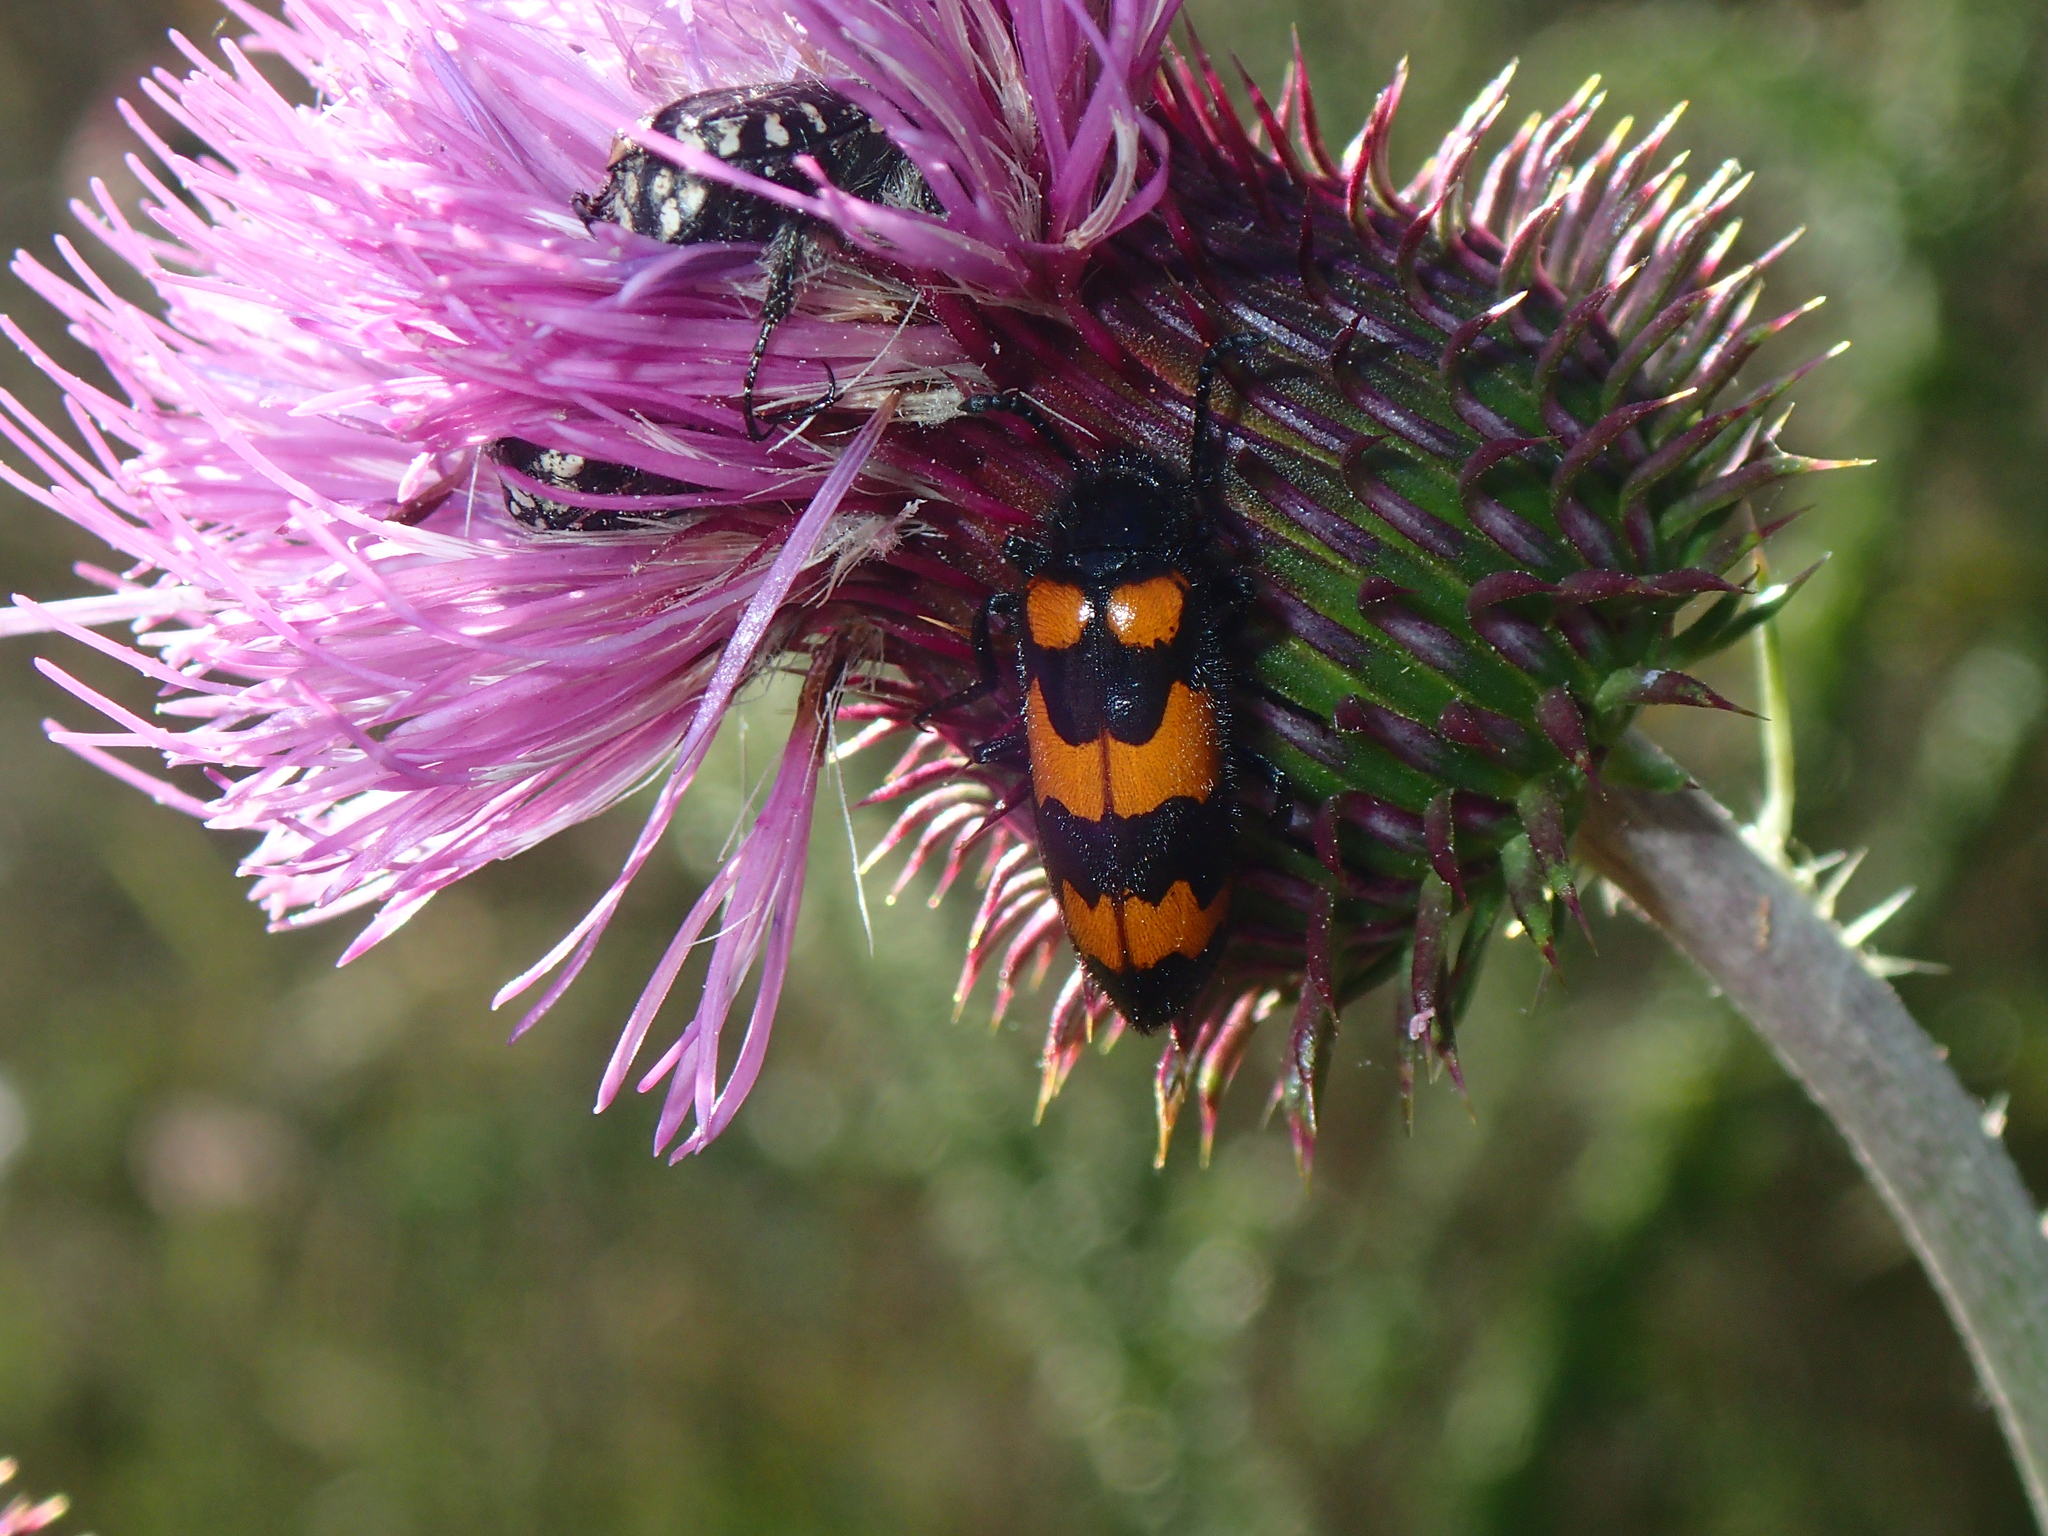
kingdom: Animalia
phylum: Arthropoda
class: Insecta
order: Coleoptera
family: Meloidae
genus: Mylabris
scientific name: Mylabris variabilis
